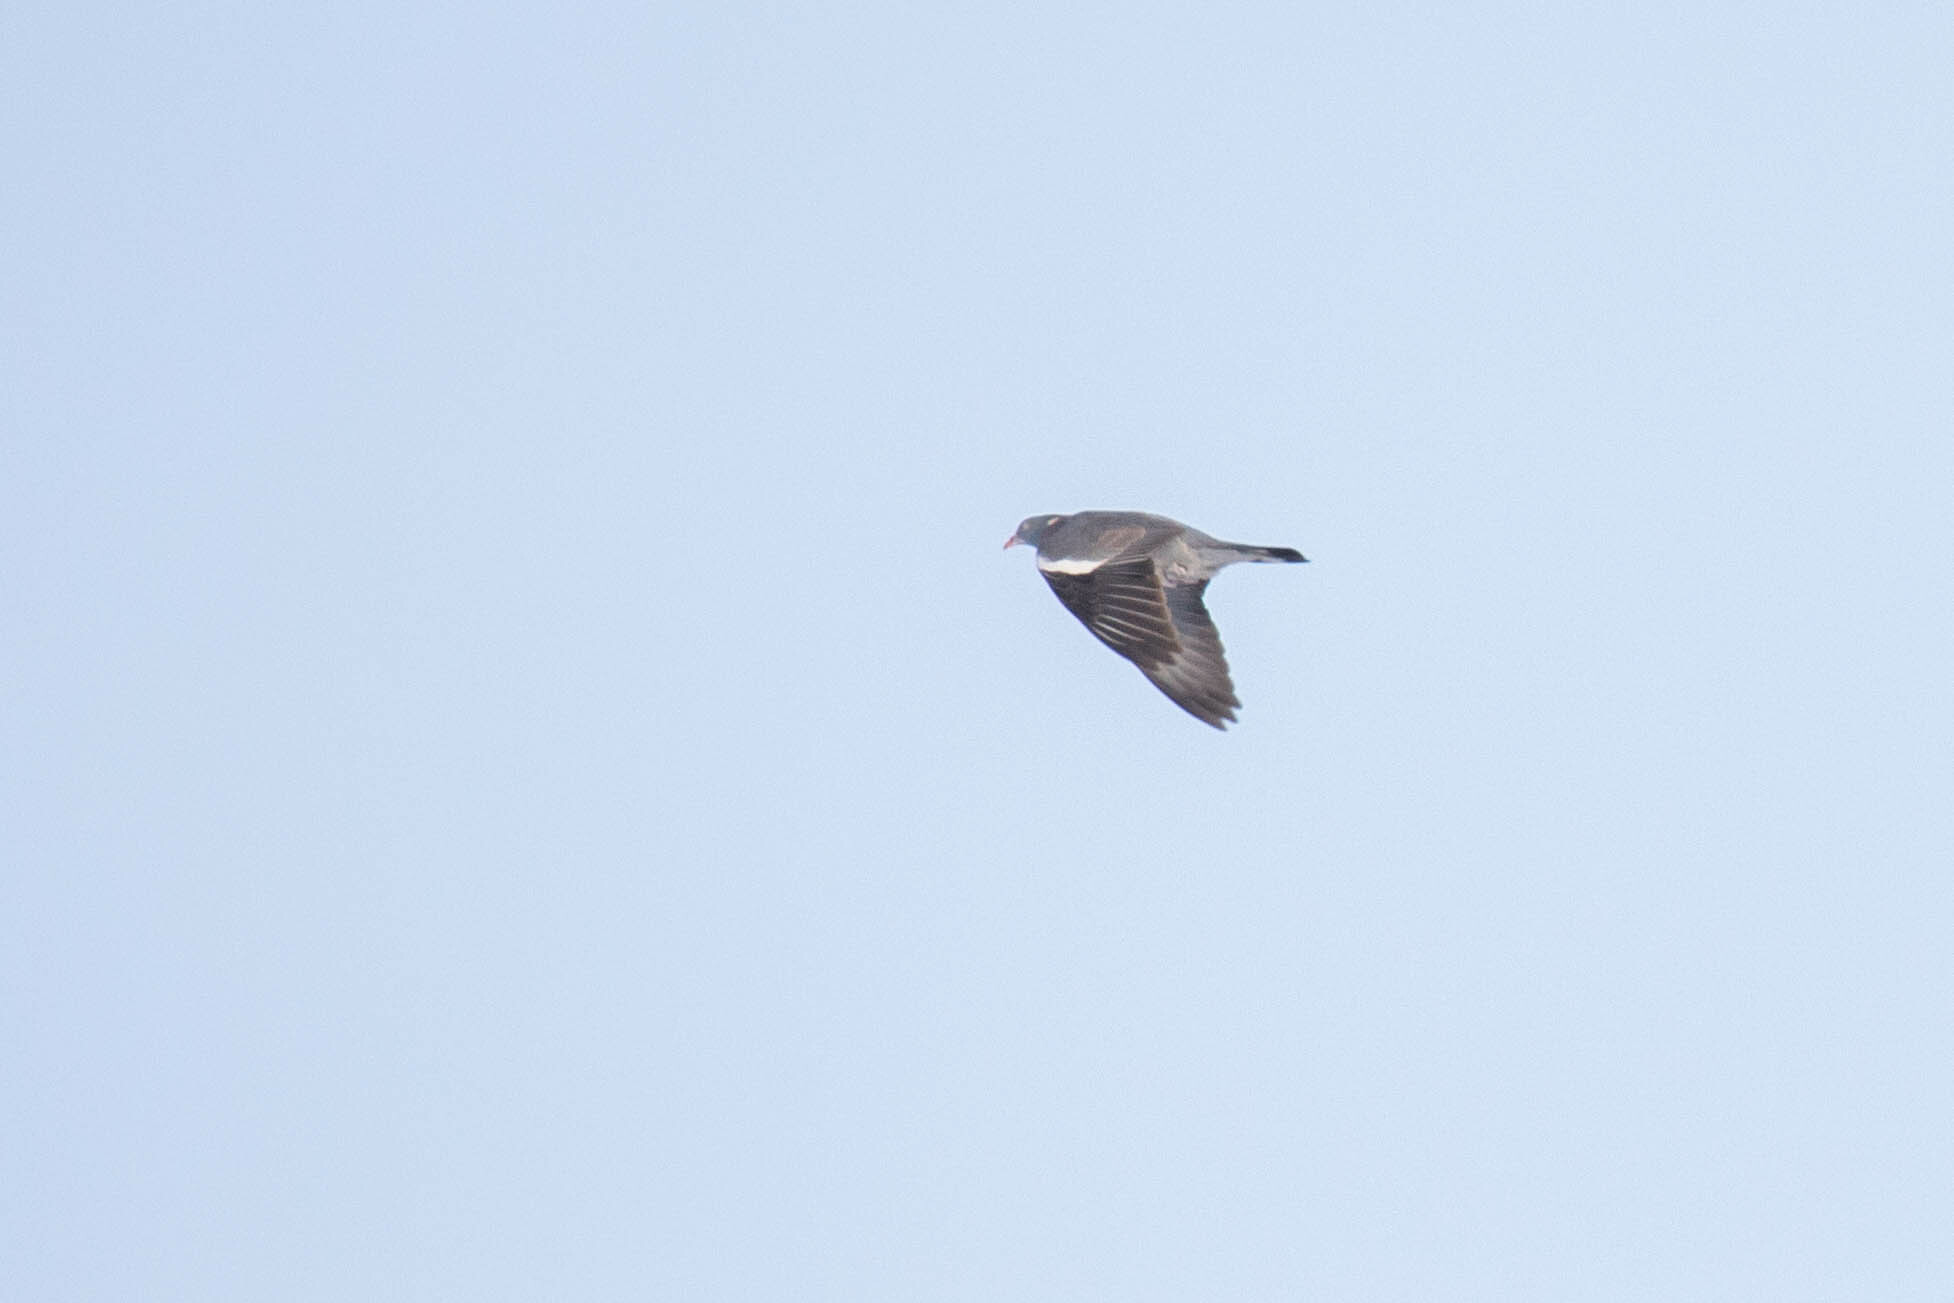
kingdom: Animalia
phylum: Chordata
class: Aves
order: Columbiformes
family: Columbidae
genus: Columba
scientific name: Columba palumbus
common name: Common wood pigeon
